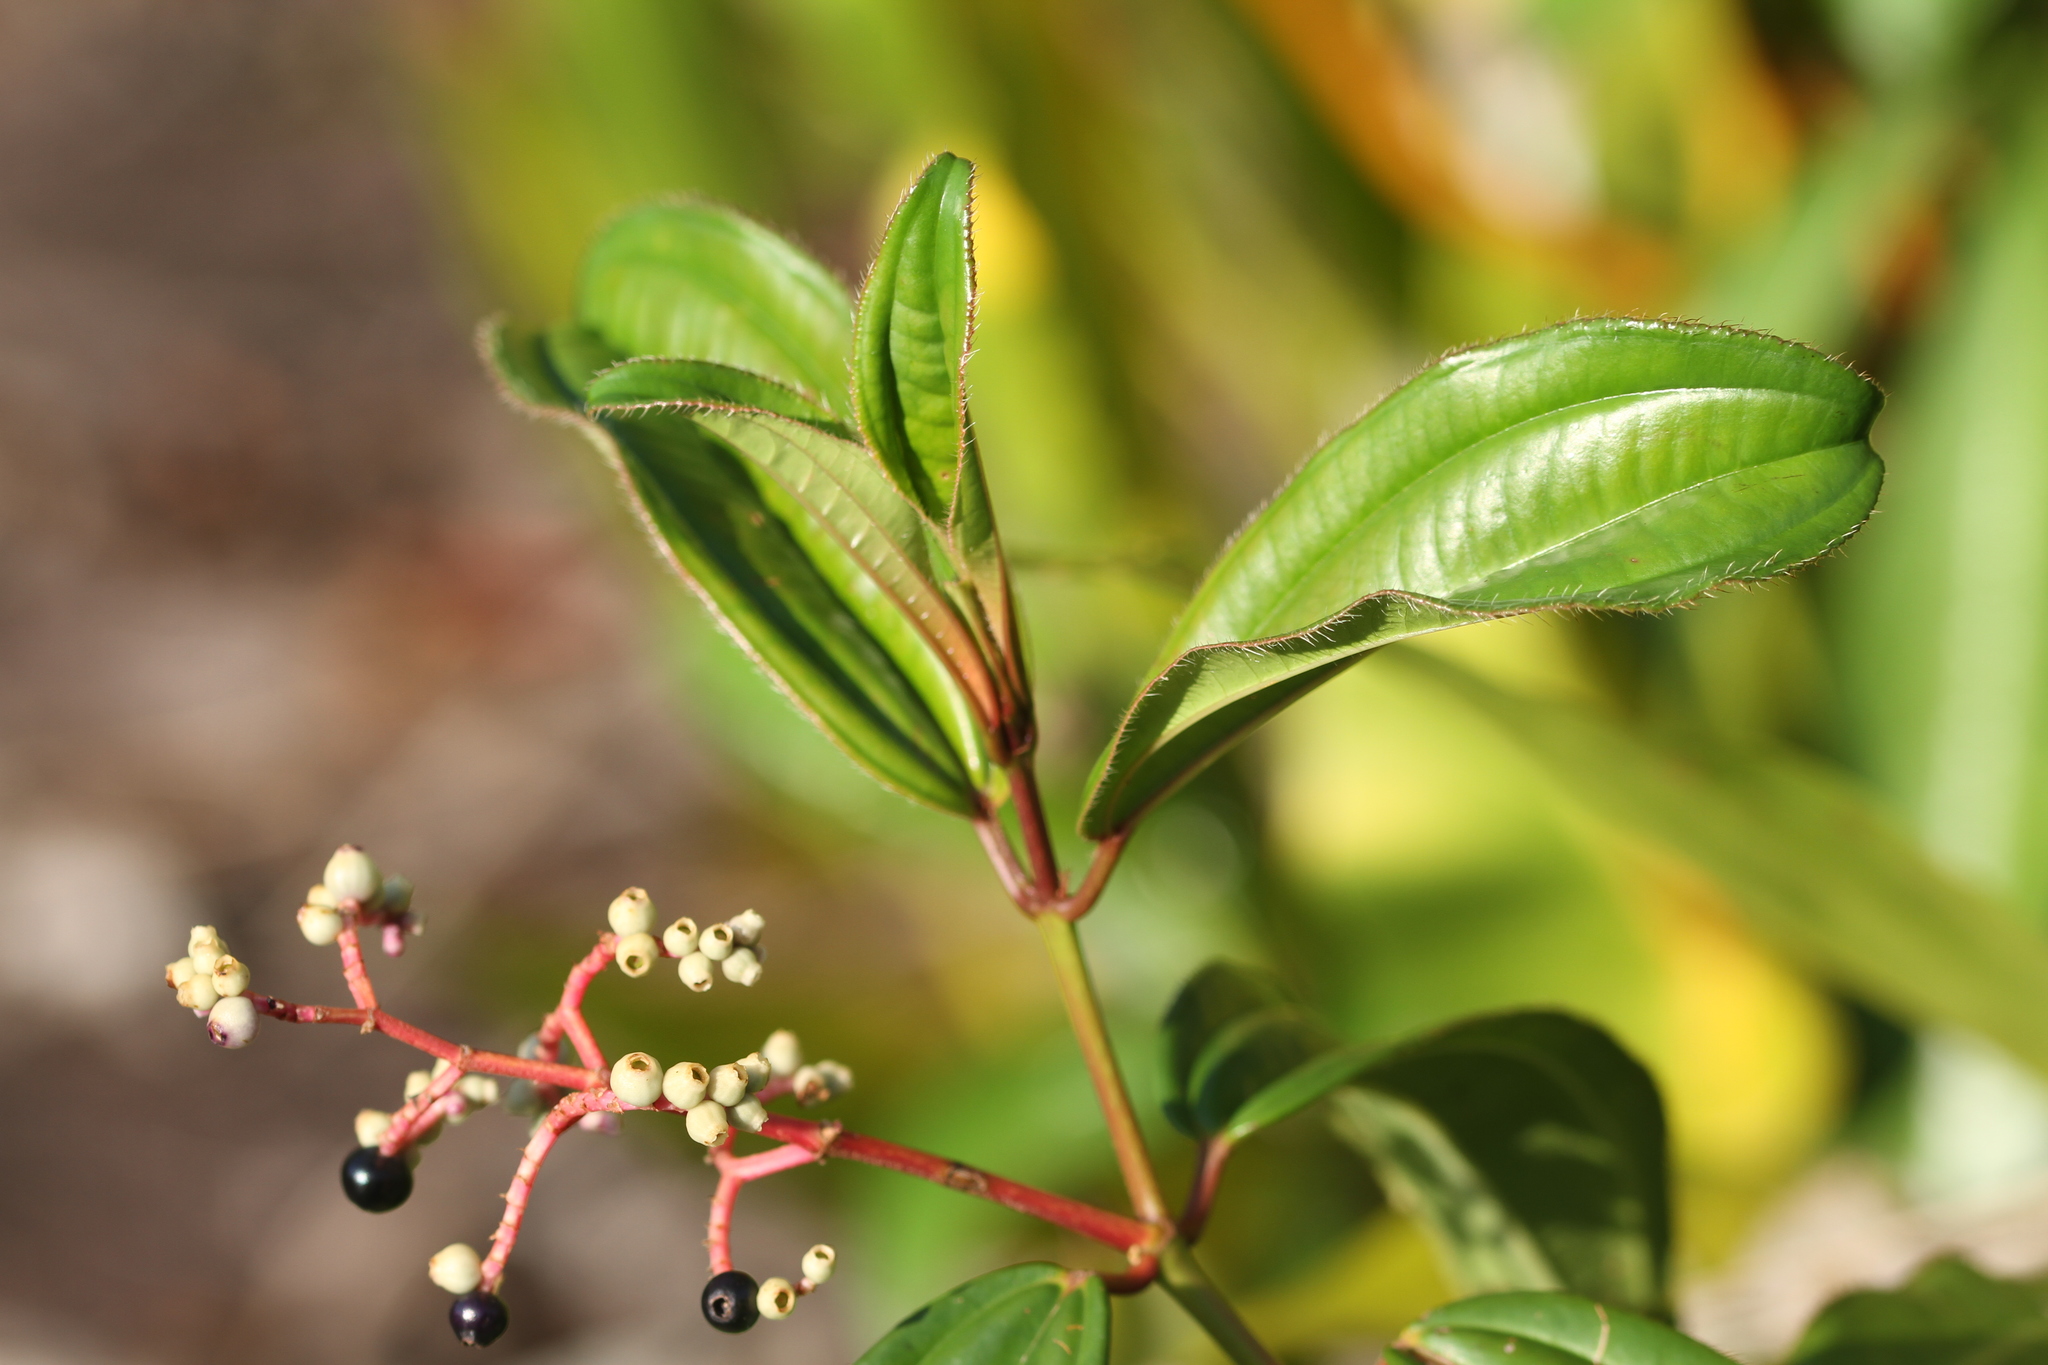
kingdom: Plantae
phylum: Tracheophyta
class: Magnoliopsida
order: Myrtales
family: Melastomataceae
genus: Miconia
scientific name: Miconia ciliata
